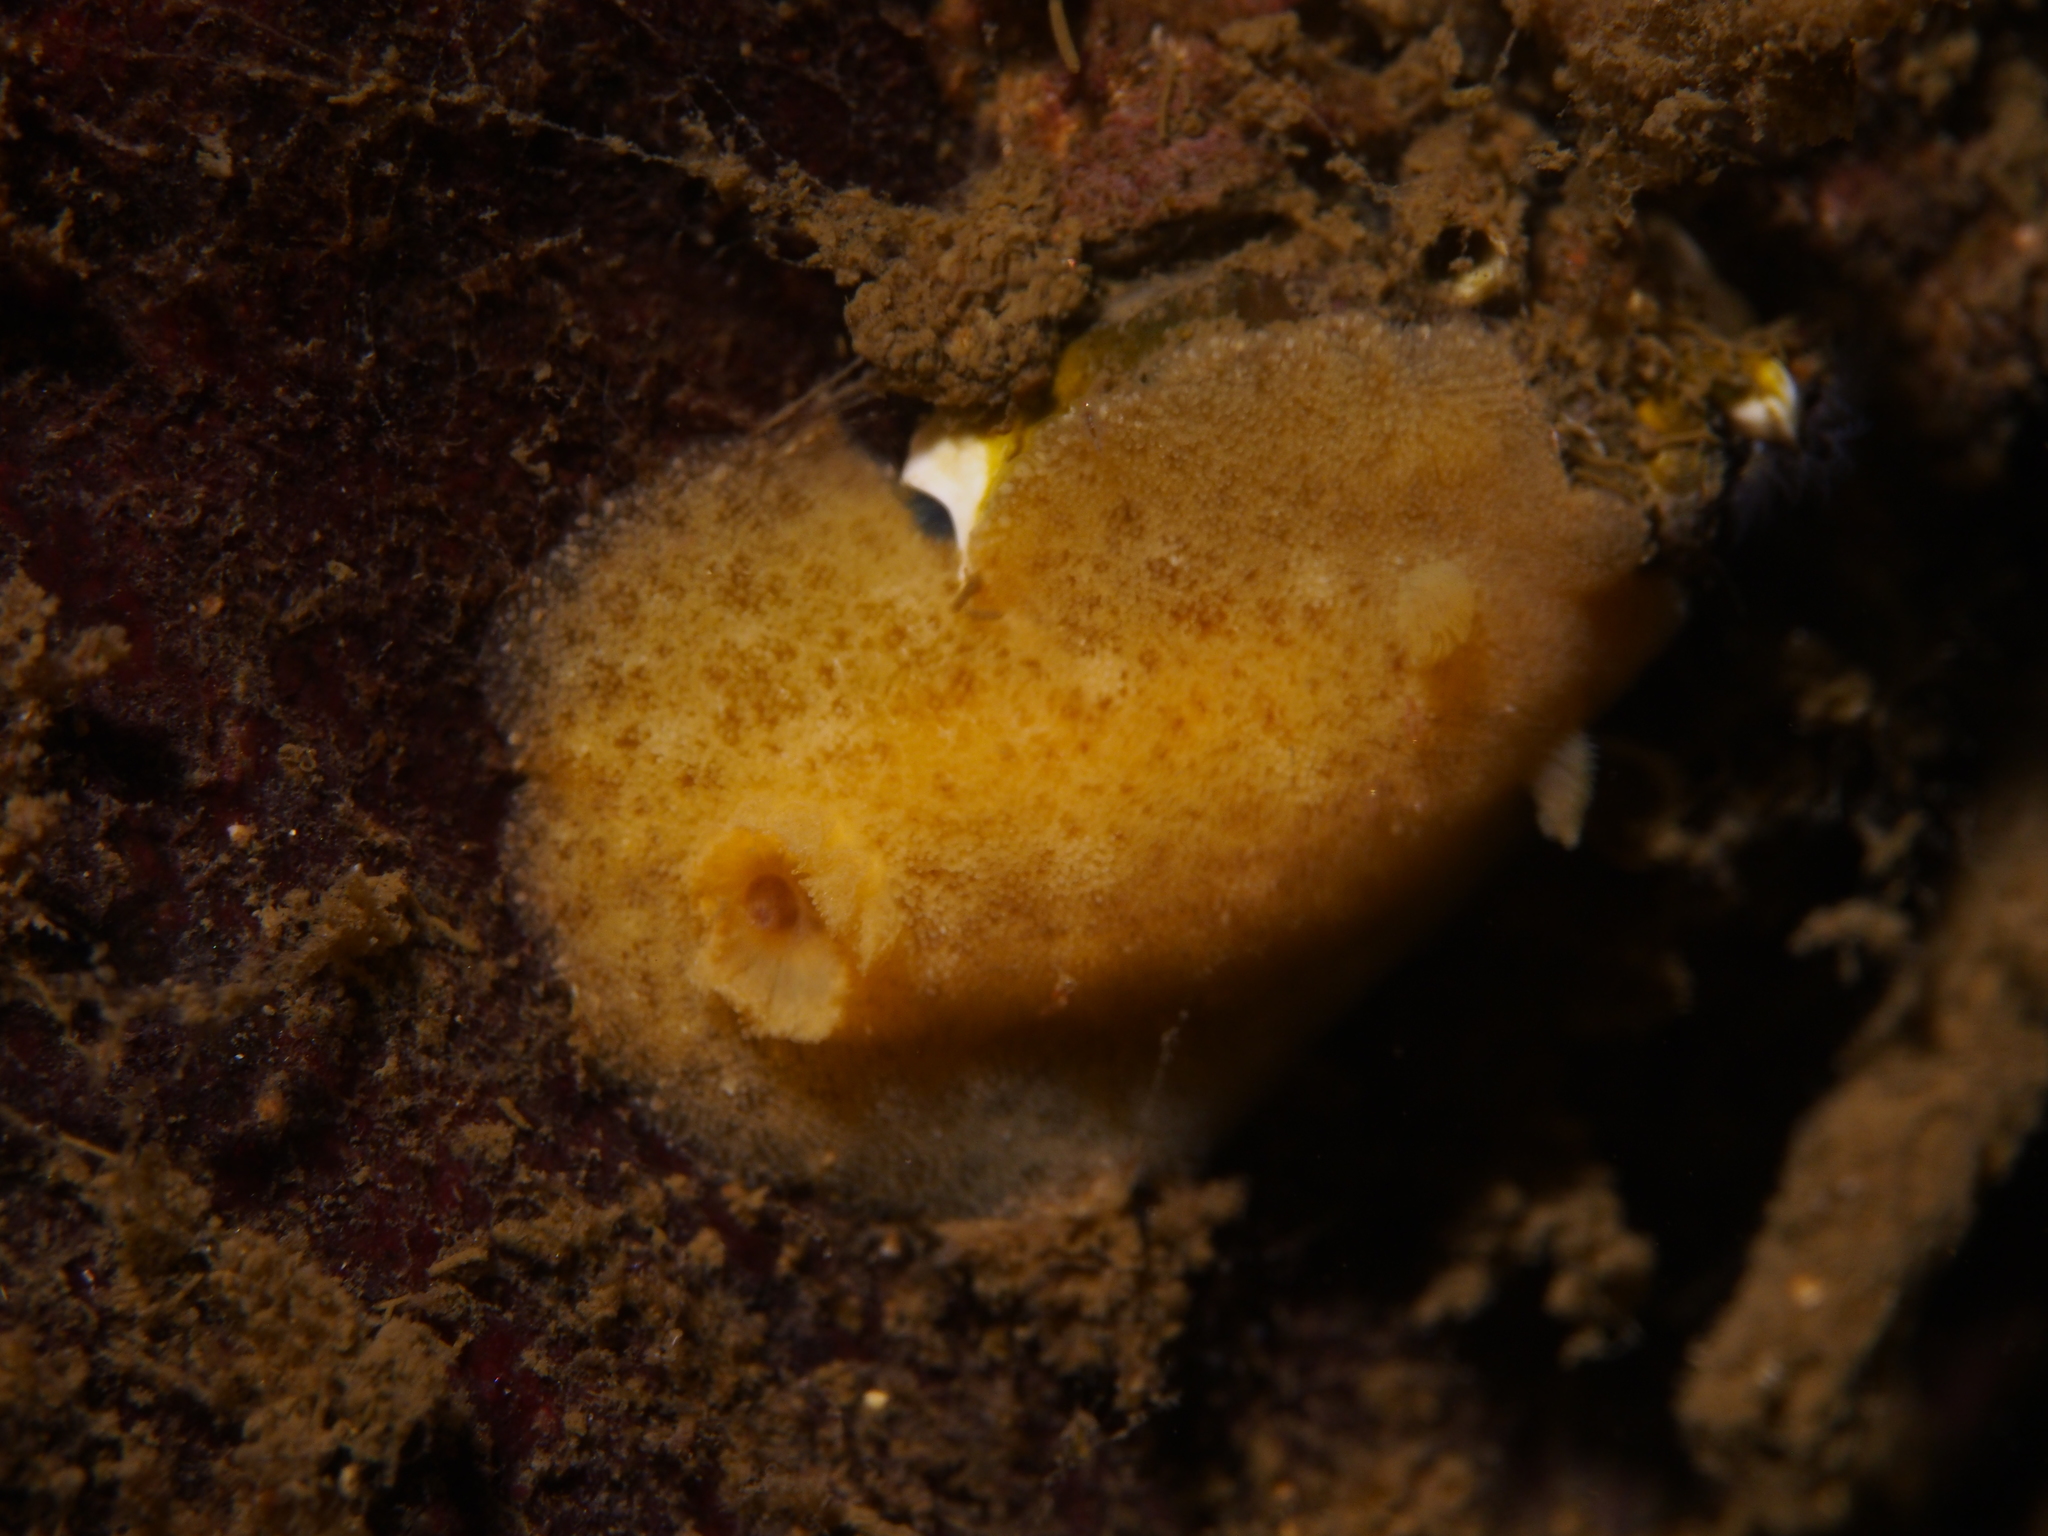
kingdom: Animalia
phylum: Mollusca
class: Gastropoda
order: Nudibranchia
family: Discodorididae
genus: Jorunna
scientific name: Jorunna tomentosa
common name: Grey sea slug
